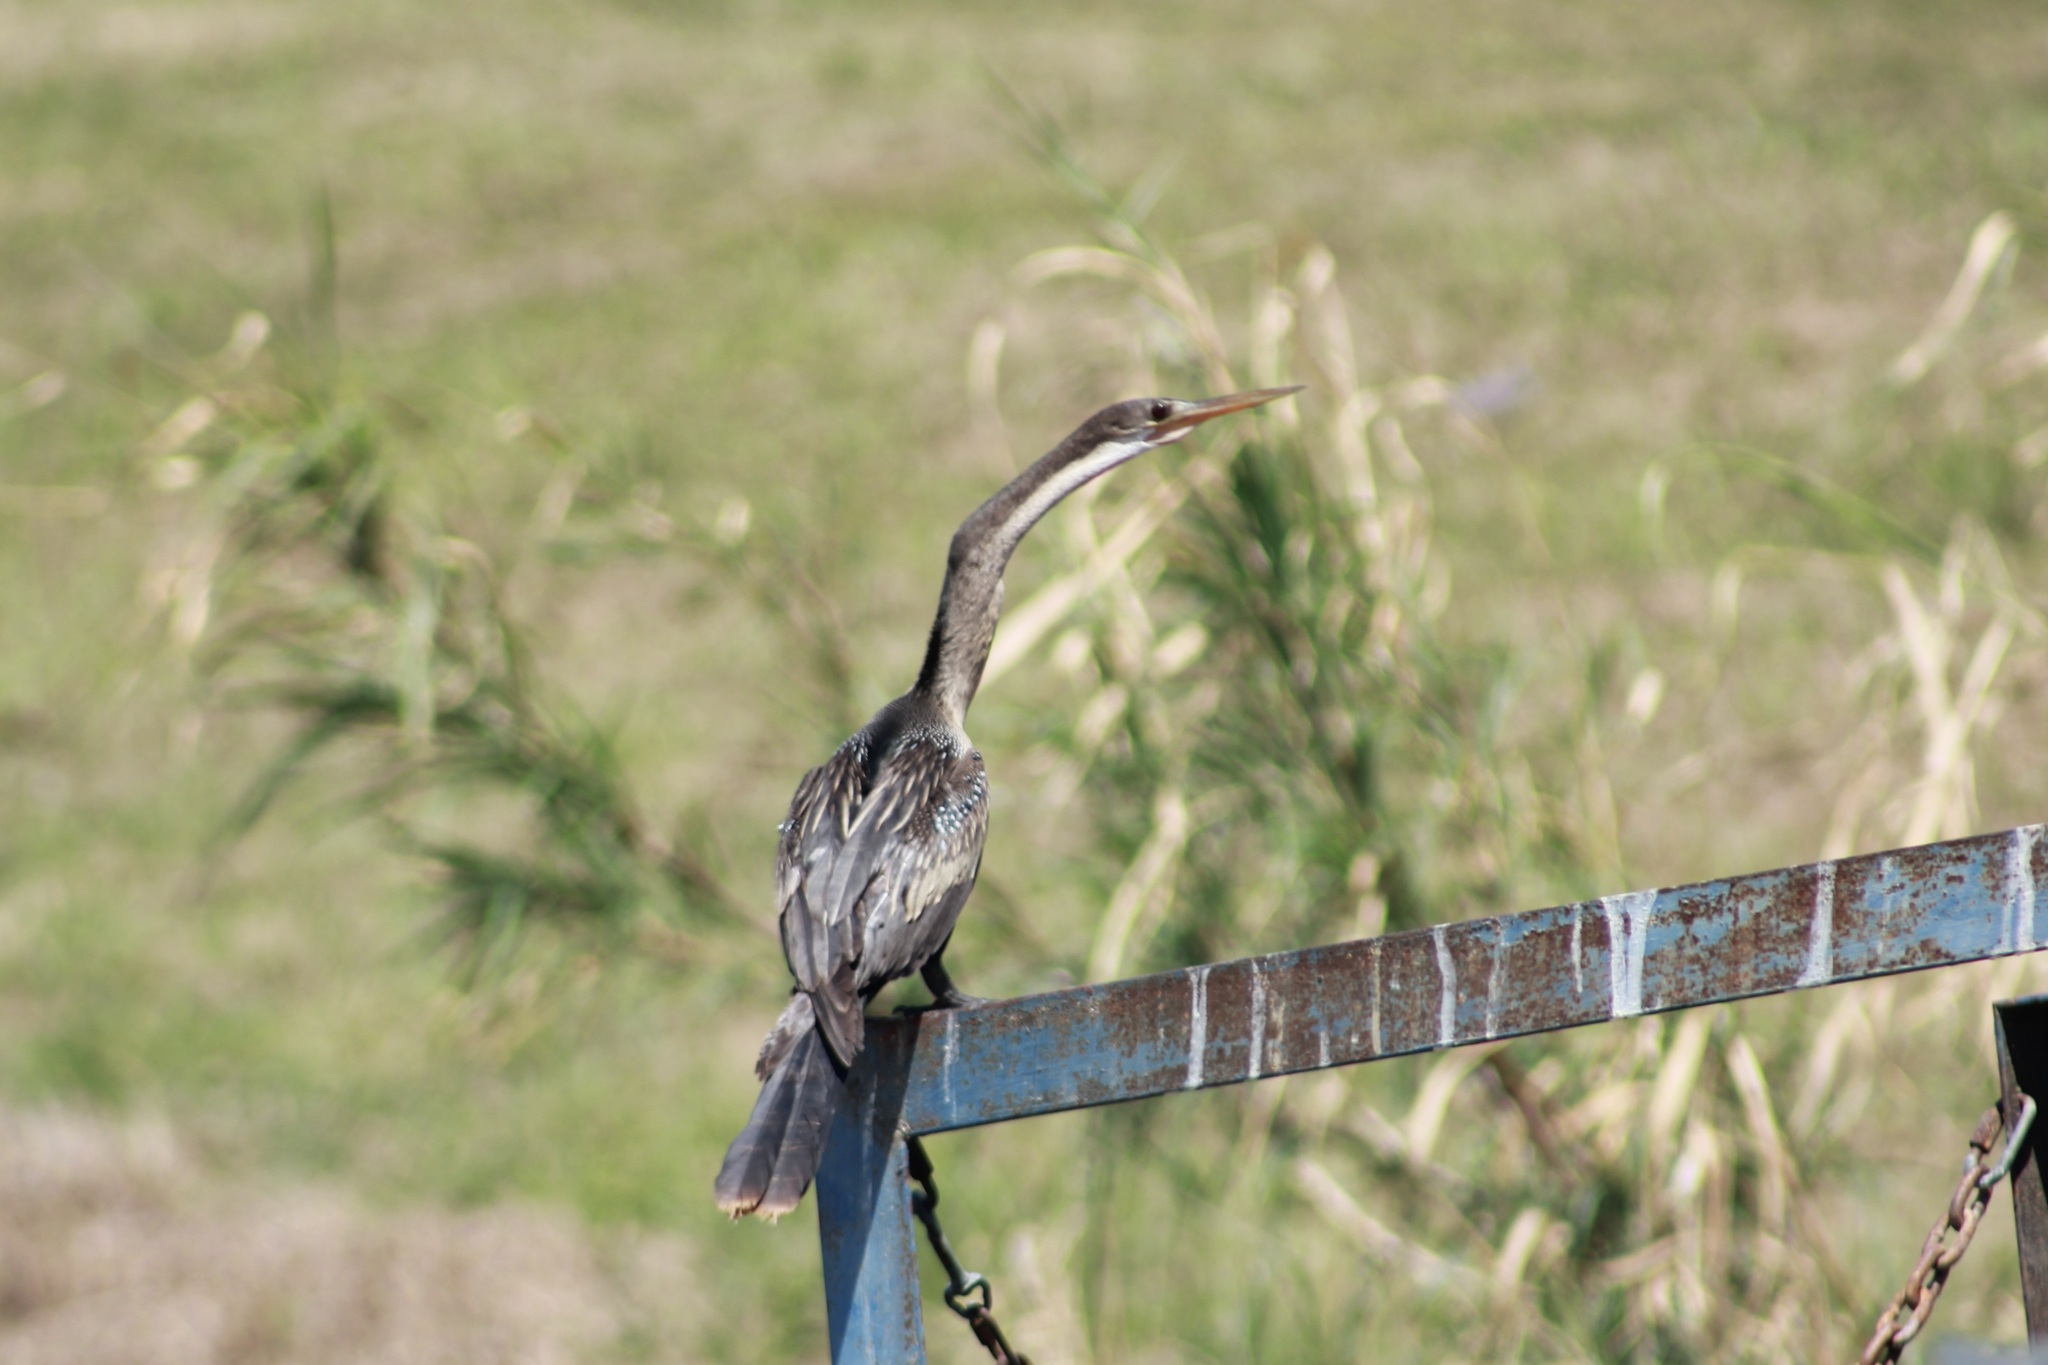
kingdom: Animalia
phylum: Chordata
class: Aves
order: Suliformes
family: Anhingidae
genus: Anhinga
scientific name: Anhinga anhinga
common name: Anhinga
